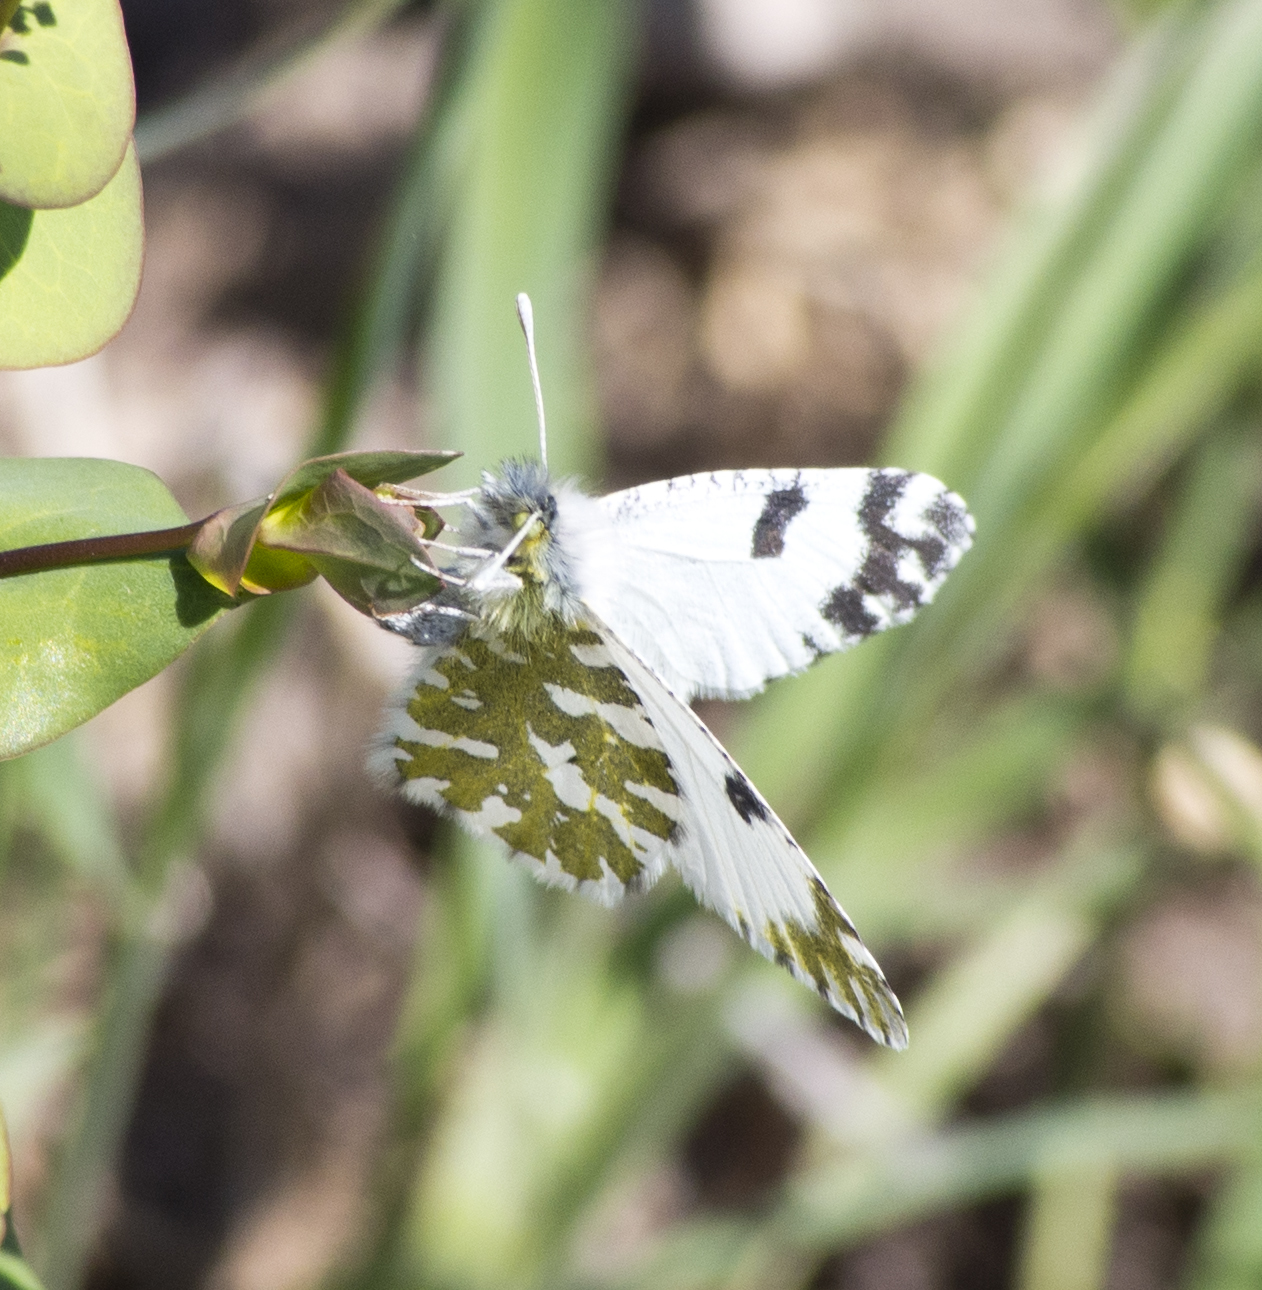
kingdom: Animalia
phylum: Arthropoda
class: Insecta
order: Lepidoptera
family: Pieridae
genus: Euchloe
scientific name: Euchloe ausonides
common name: Creamy marblewing
